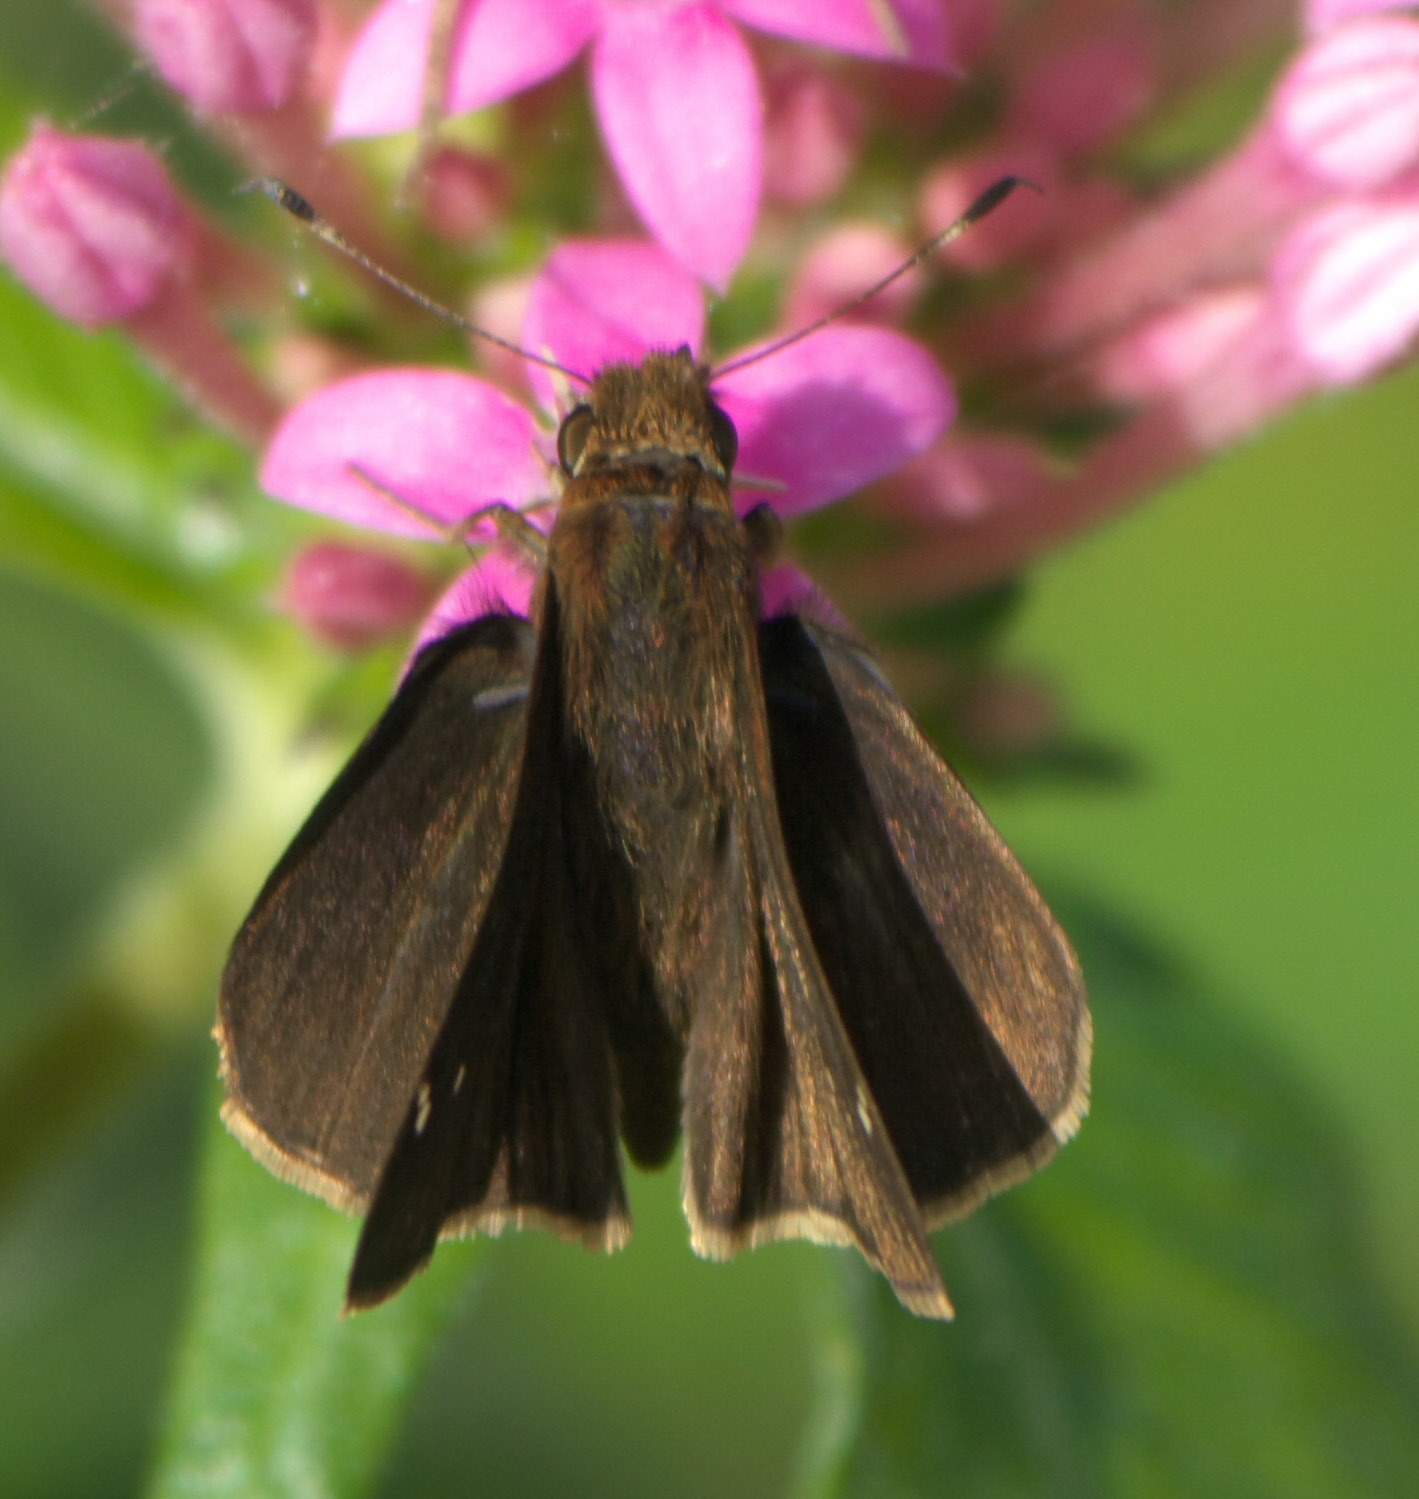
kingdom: Animalia
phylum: Arthropoda
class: Insecta
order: Lepidoptera
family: Hesperiidae
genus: Lerema
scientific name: Lerema accius
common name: Clouded skipper
